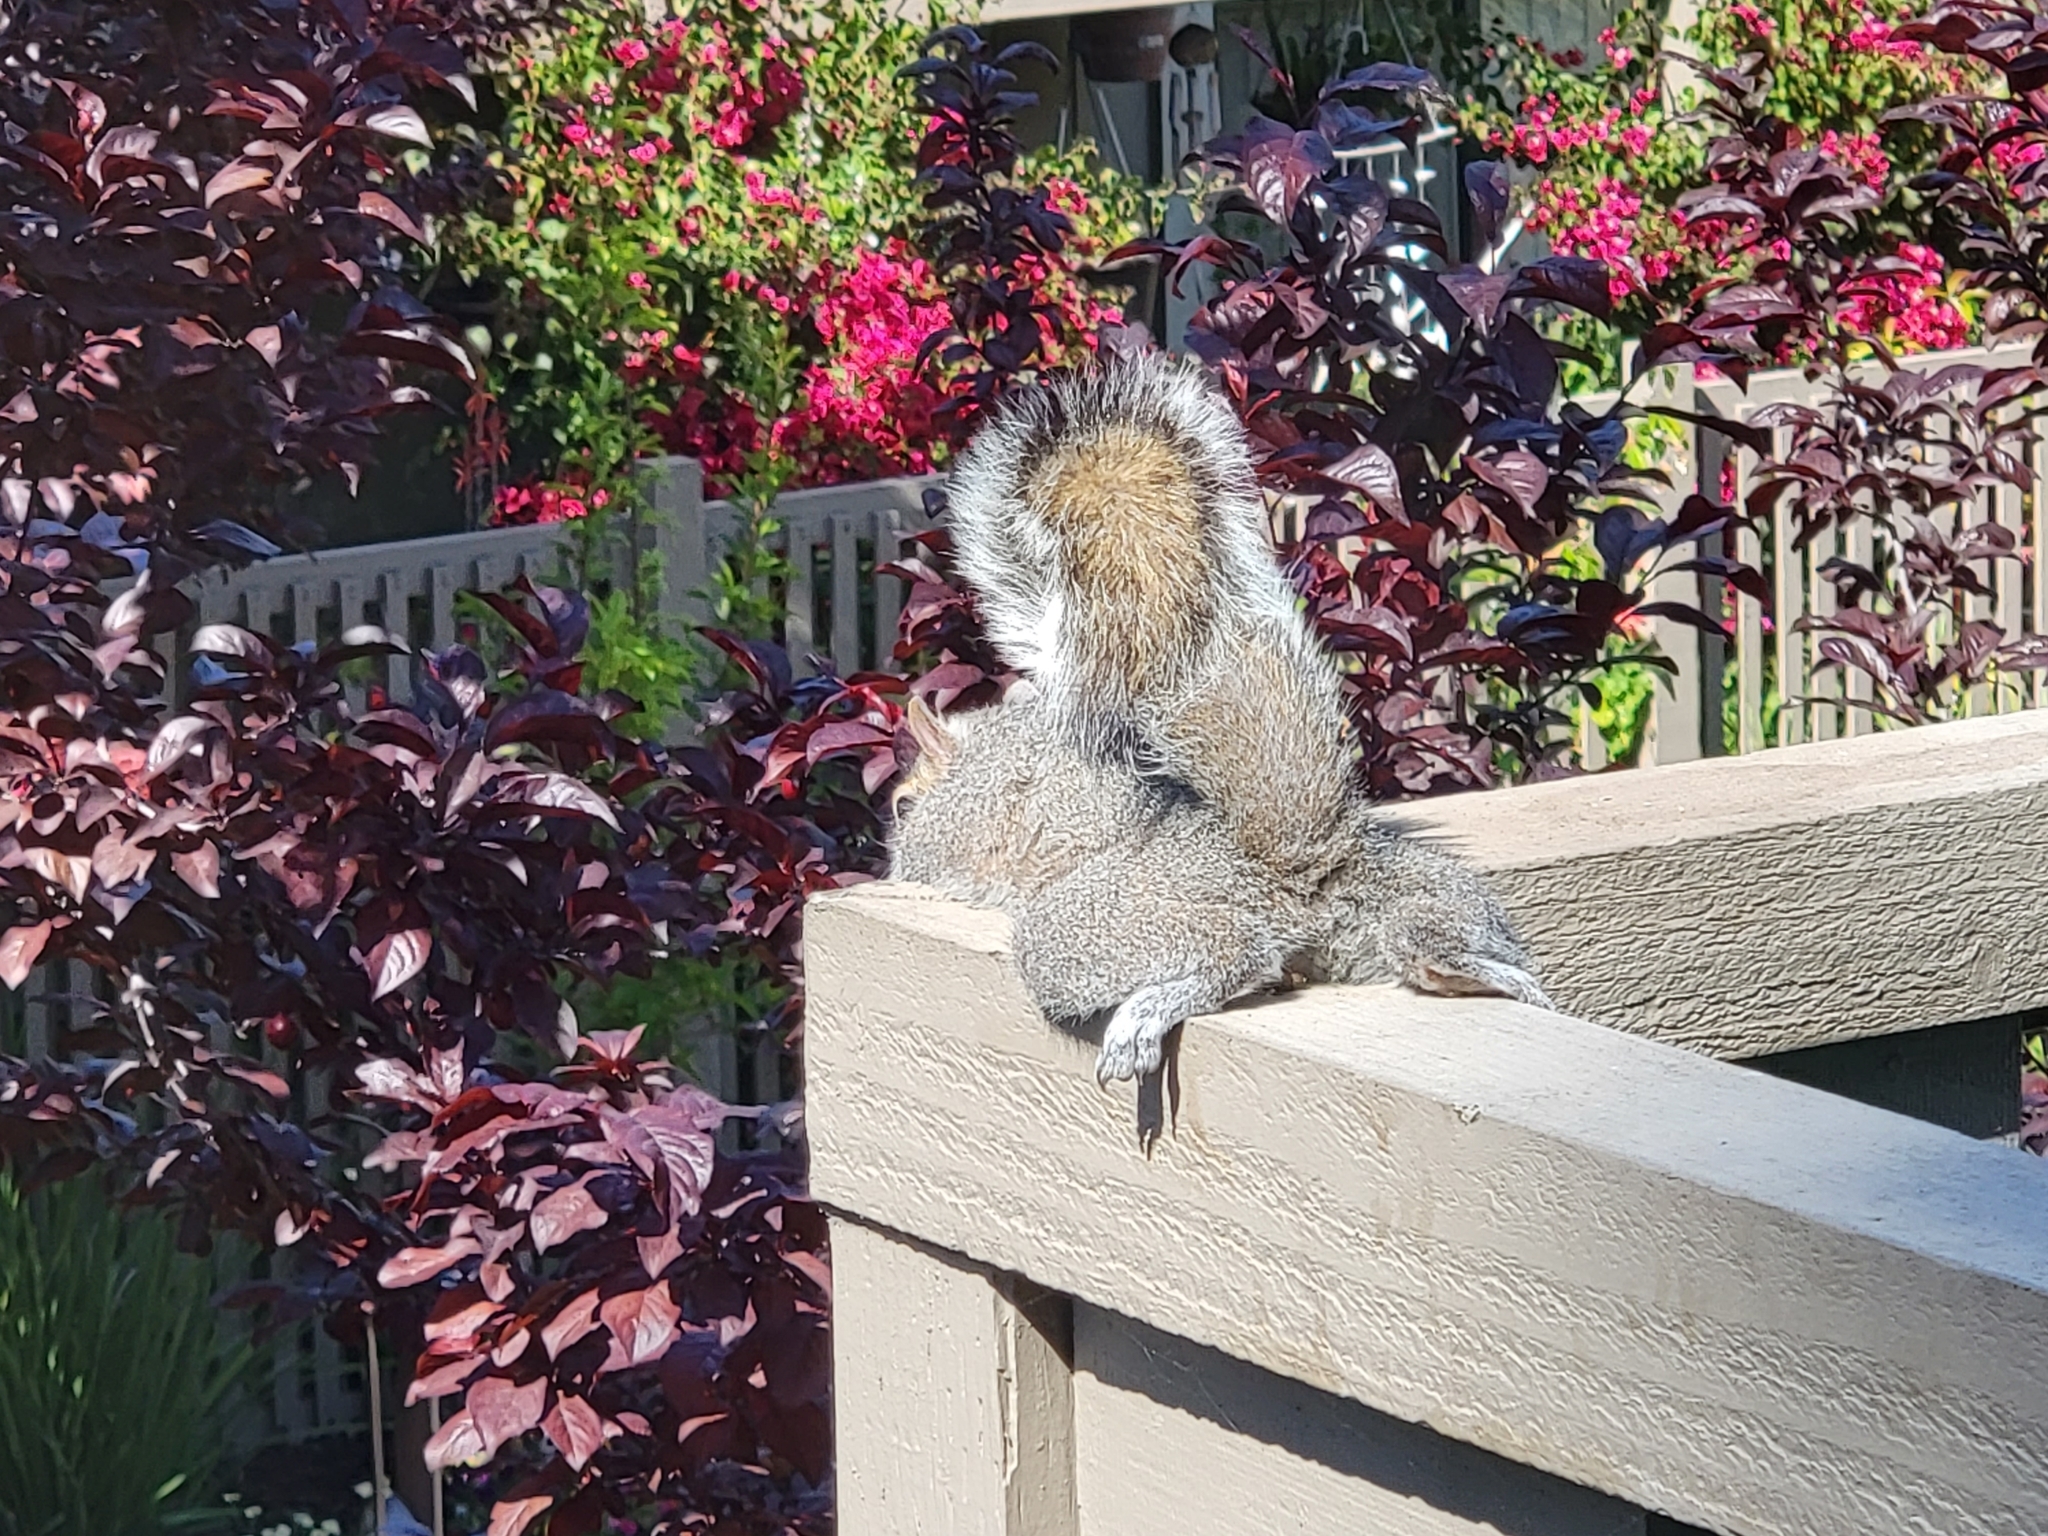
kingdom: Animalia
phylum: Chordata
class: Mammalia
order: Rodentia
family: Sciuridae
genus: Sciurus
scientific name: Sciurus carolinensis
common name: Eastern gray squirrel
